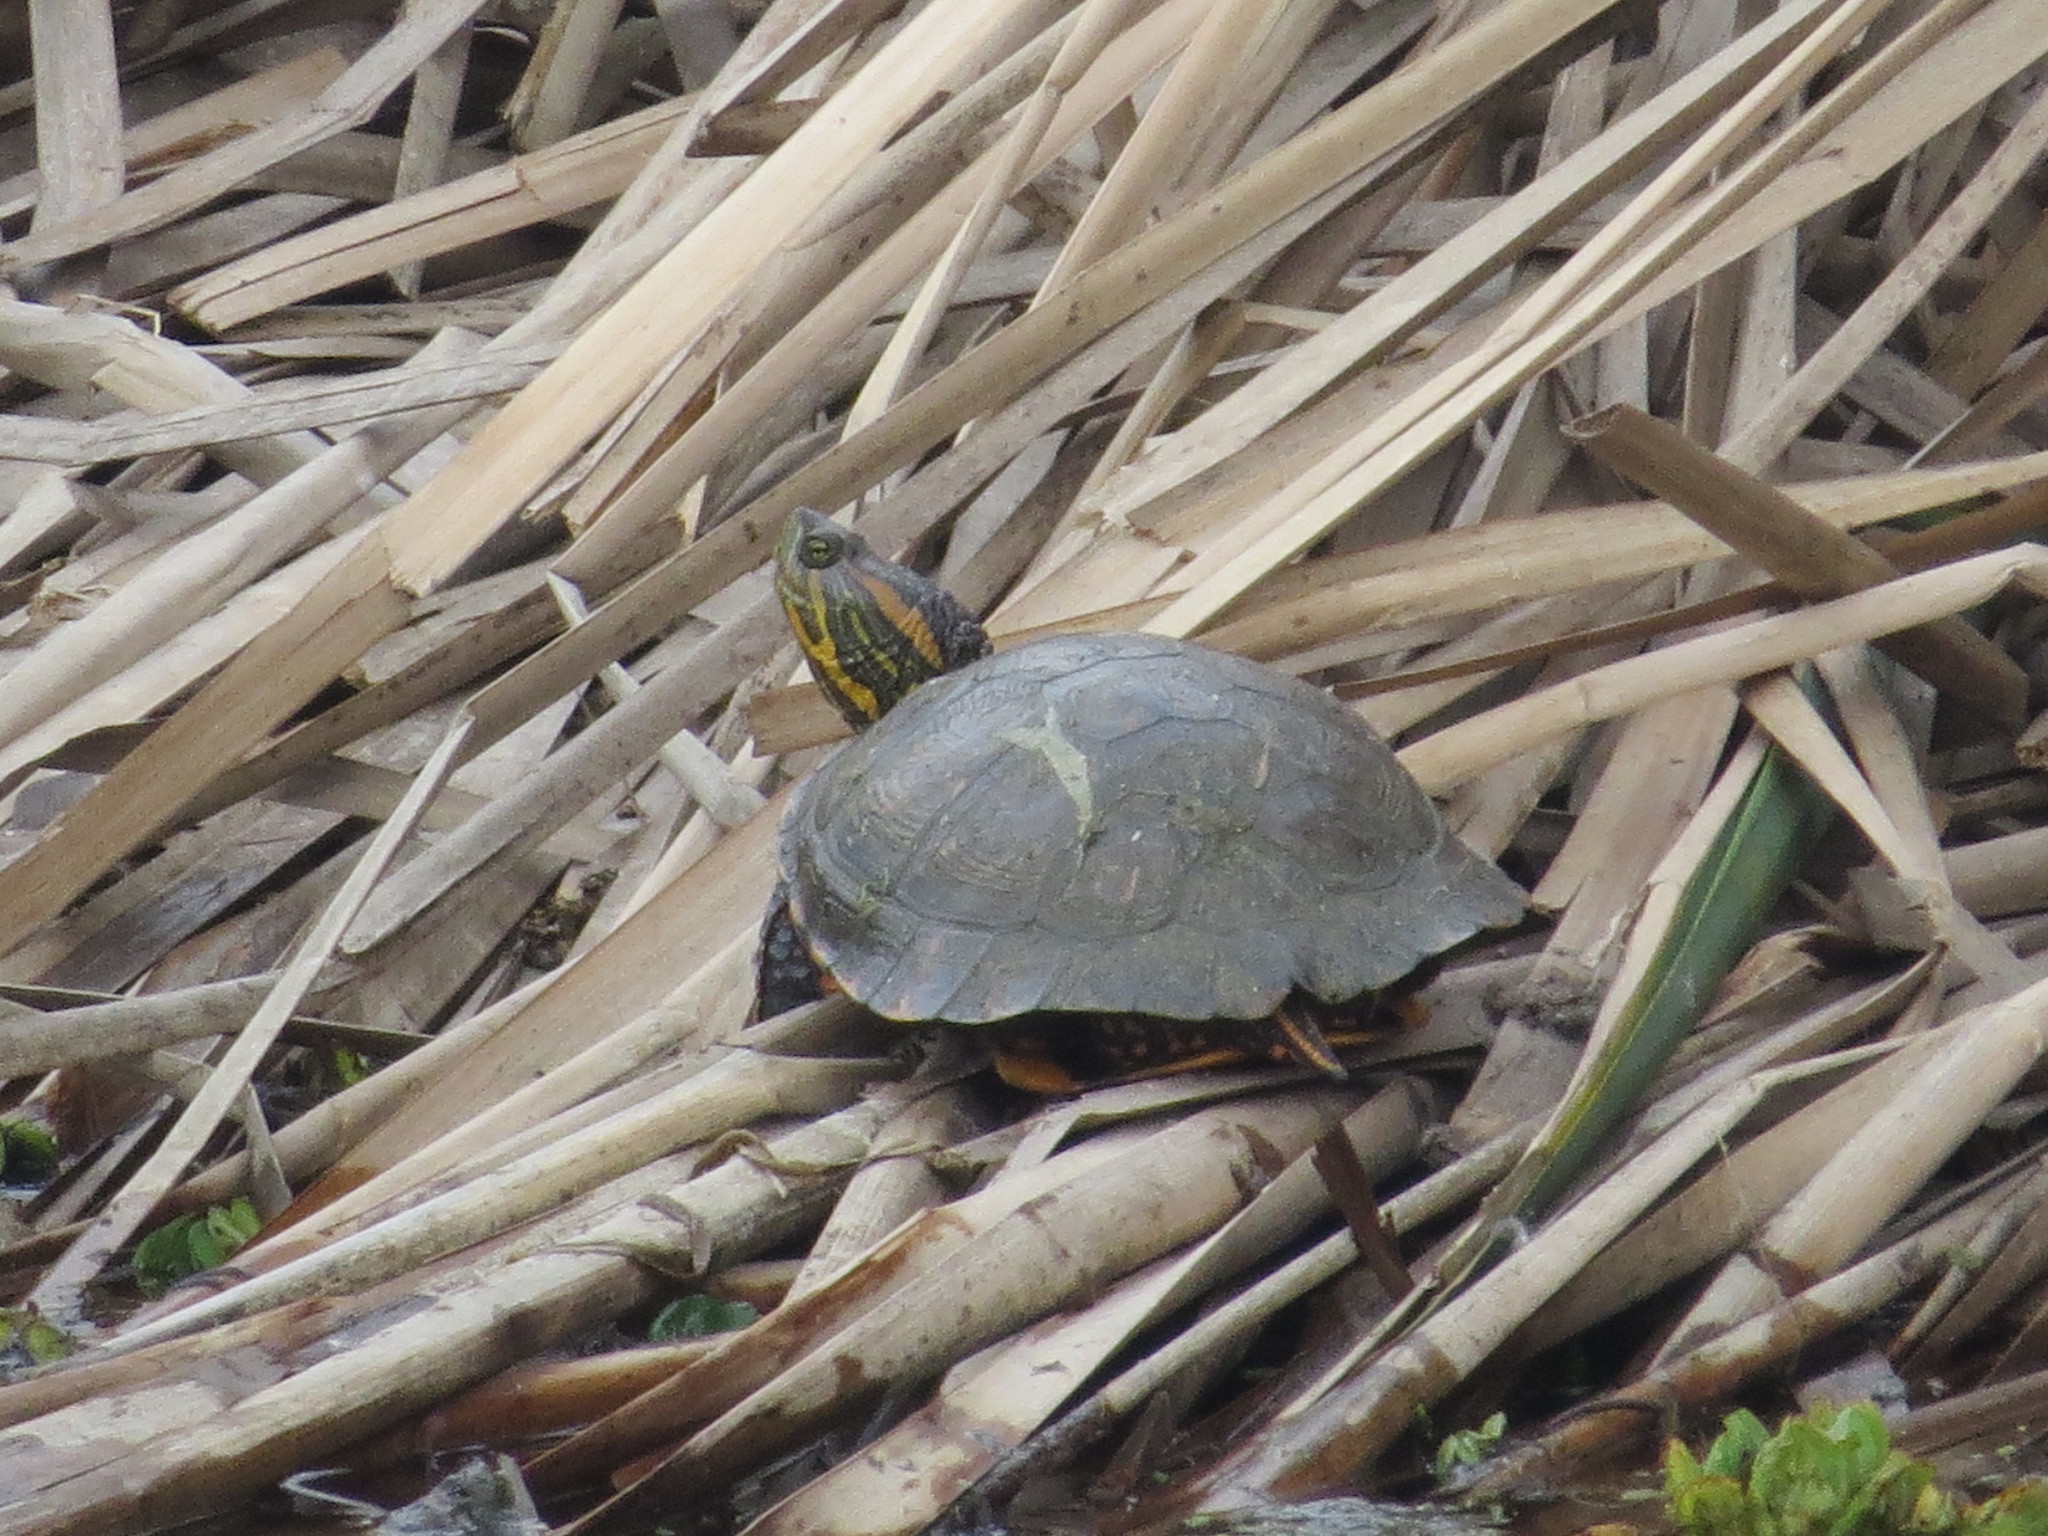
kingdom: Animalia
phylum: Chordata
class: Testudines
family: Emydidae
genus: Trachemys
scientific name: Trachemys dorbigni
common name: Black-bellied slider
